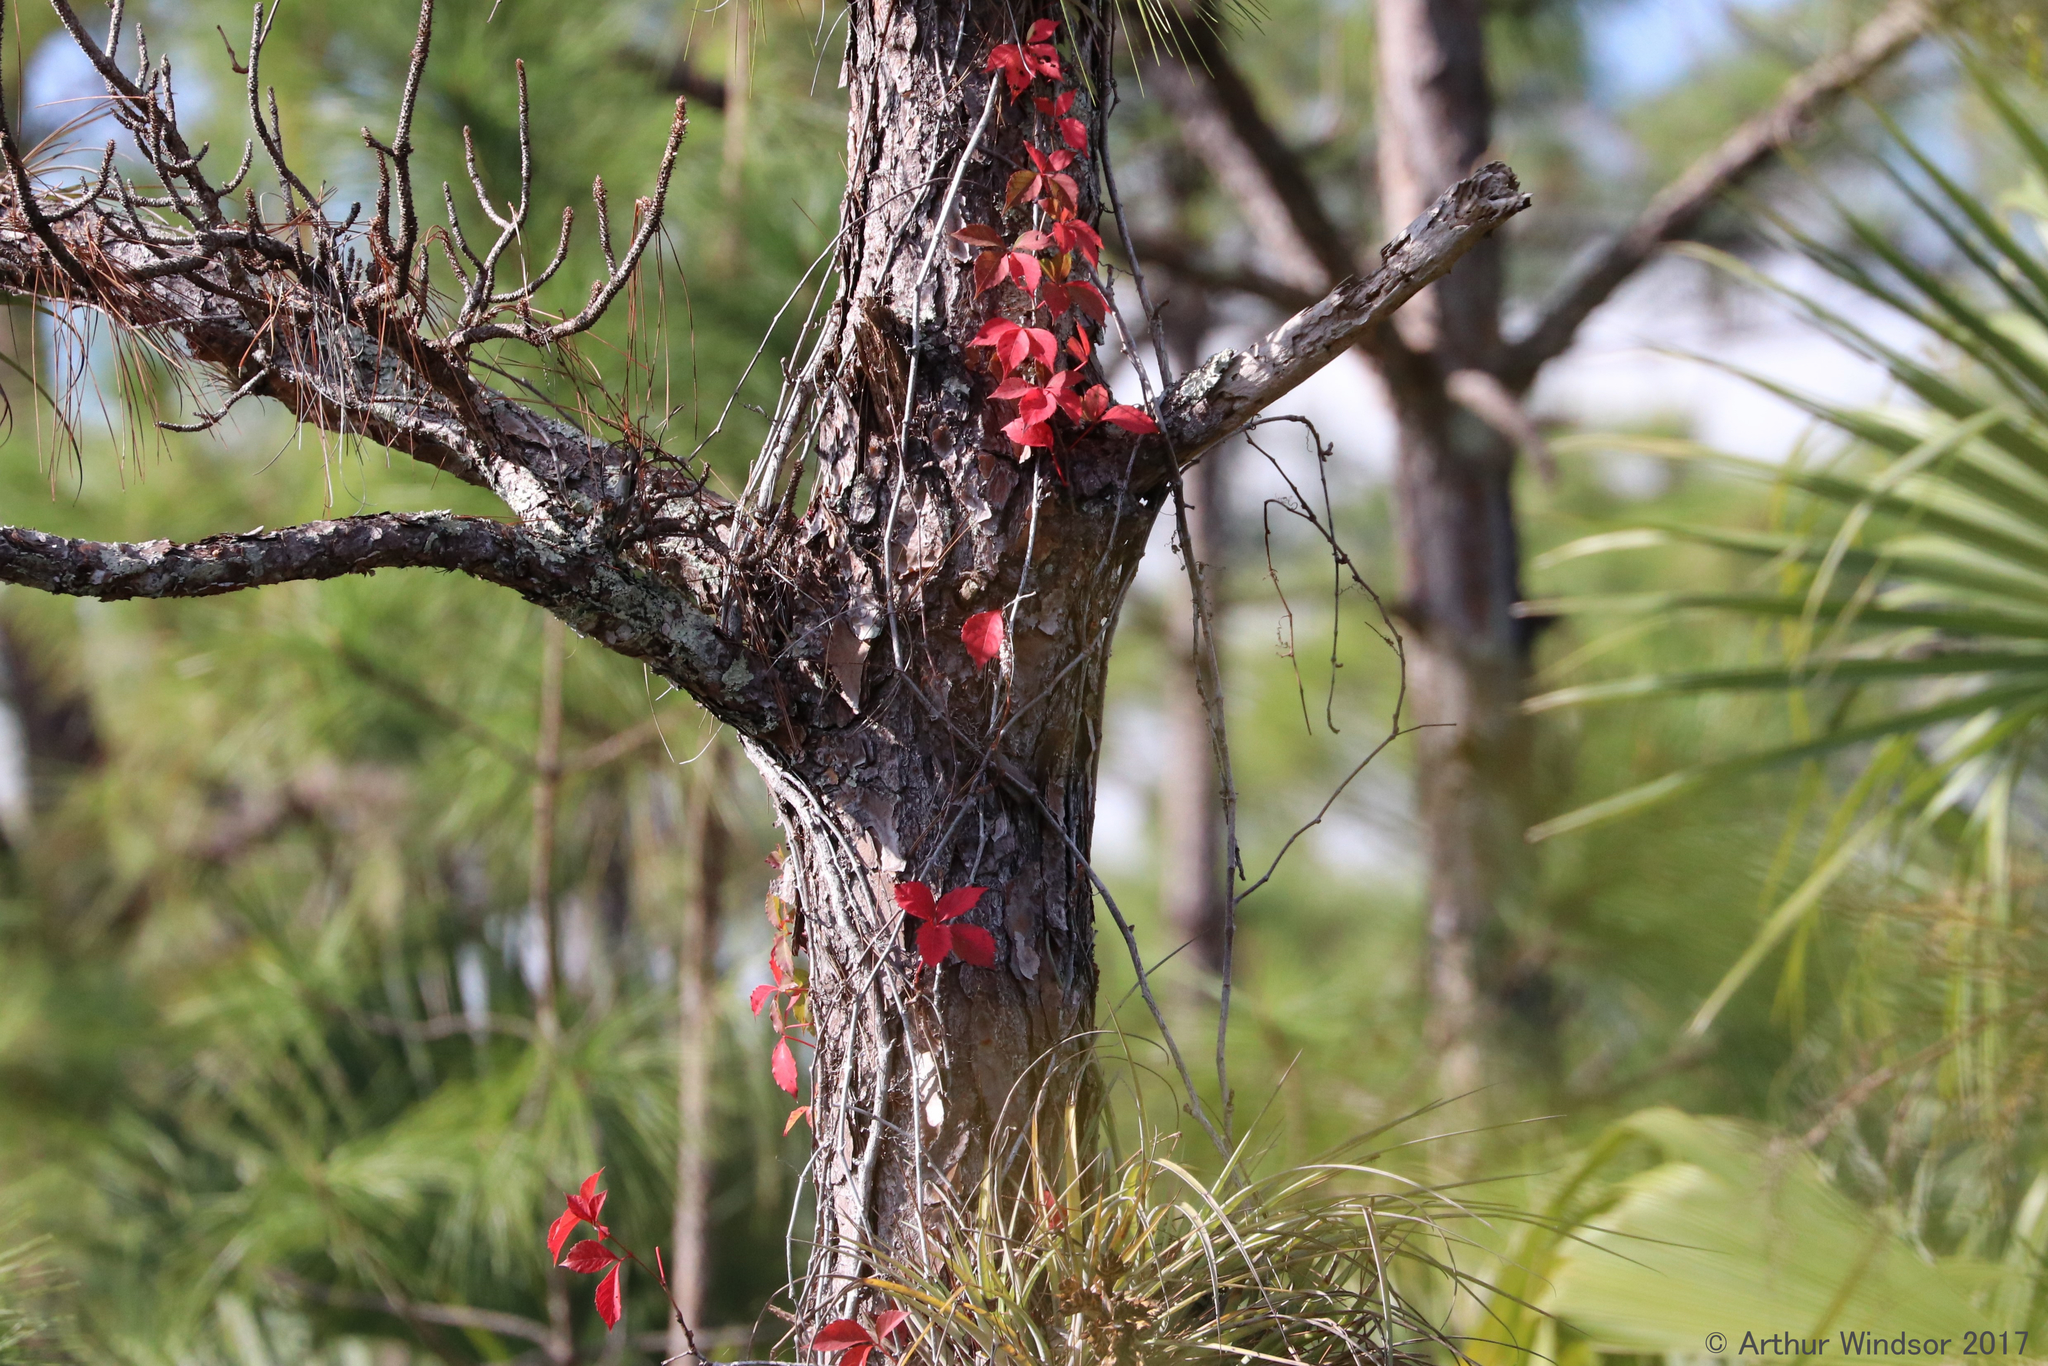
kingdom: Plantae
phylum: Tracheophyta
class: Magnoliopsida
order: Vitales
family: Vitaceae
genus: Parthenocissus
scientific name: Parthenocissus quinquefolia
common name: Virginia-creeper
